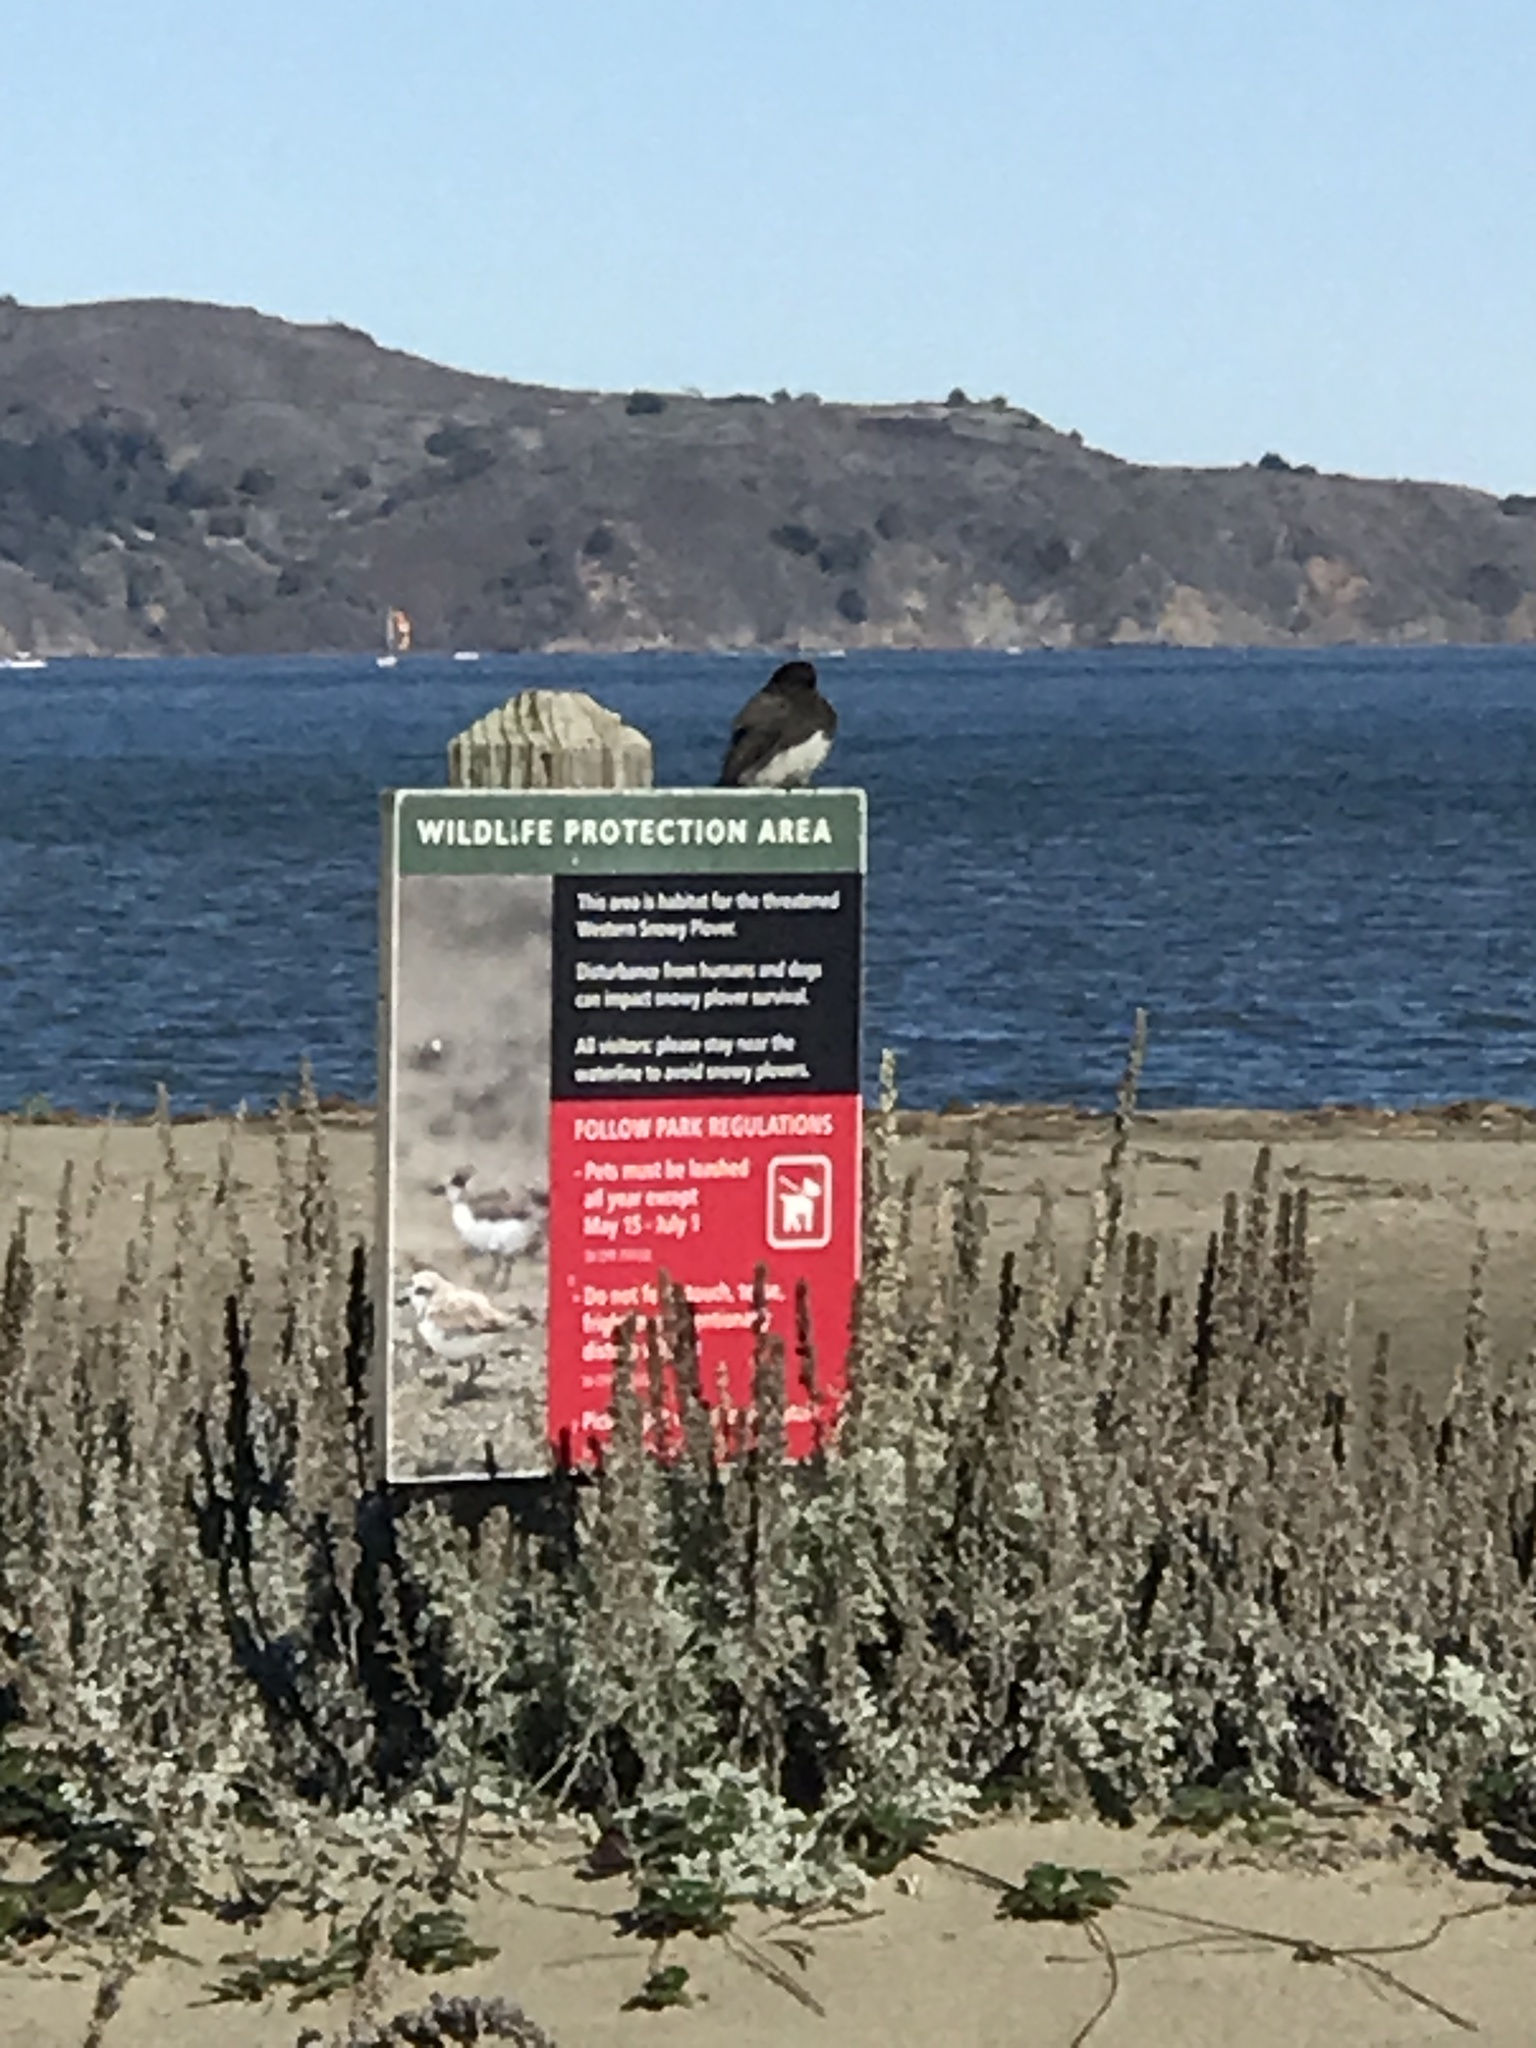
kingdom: Animalia
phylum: Chordata
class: Aves
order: Passeriformes
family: Tyrannidae
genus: Sayornis
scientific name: Sayornis nigricans
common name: Black phoebe
